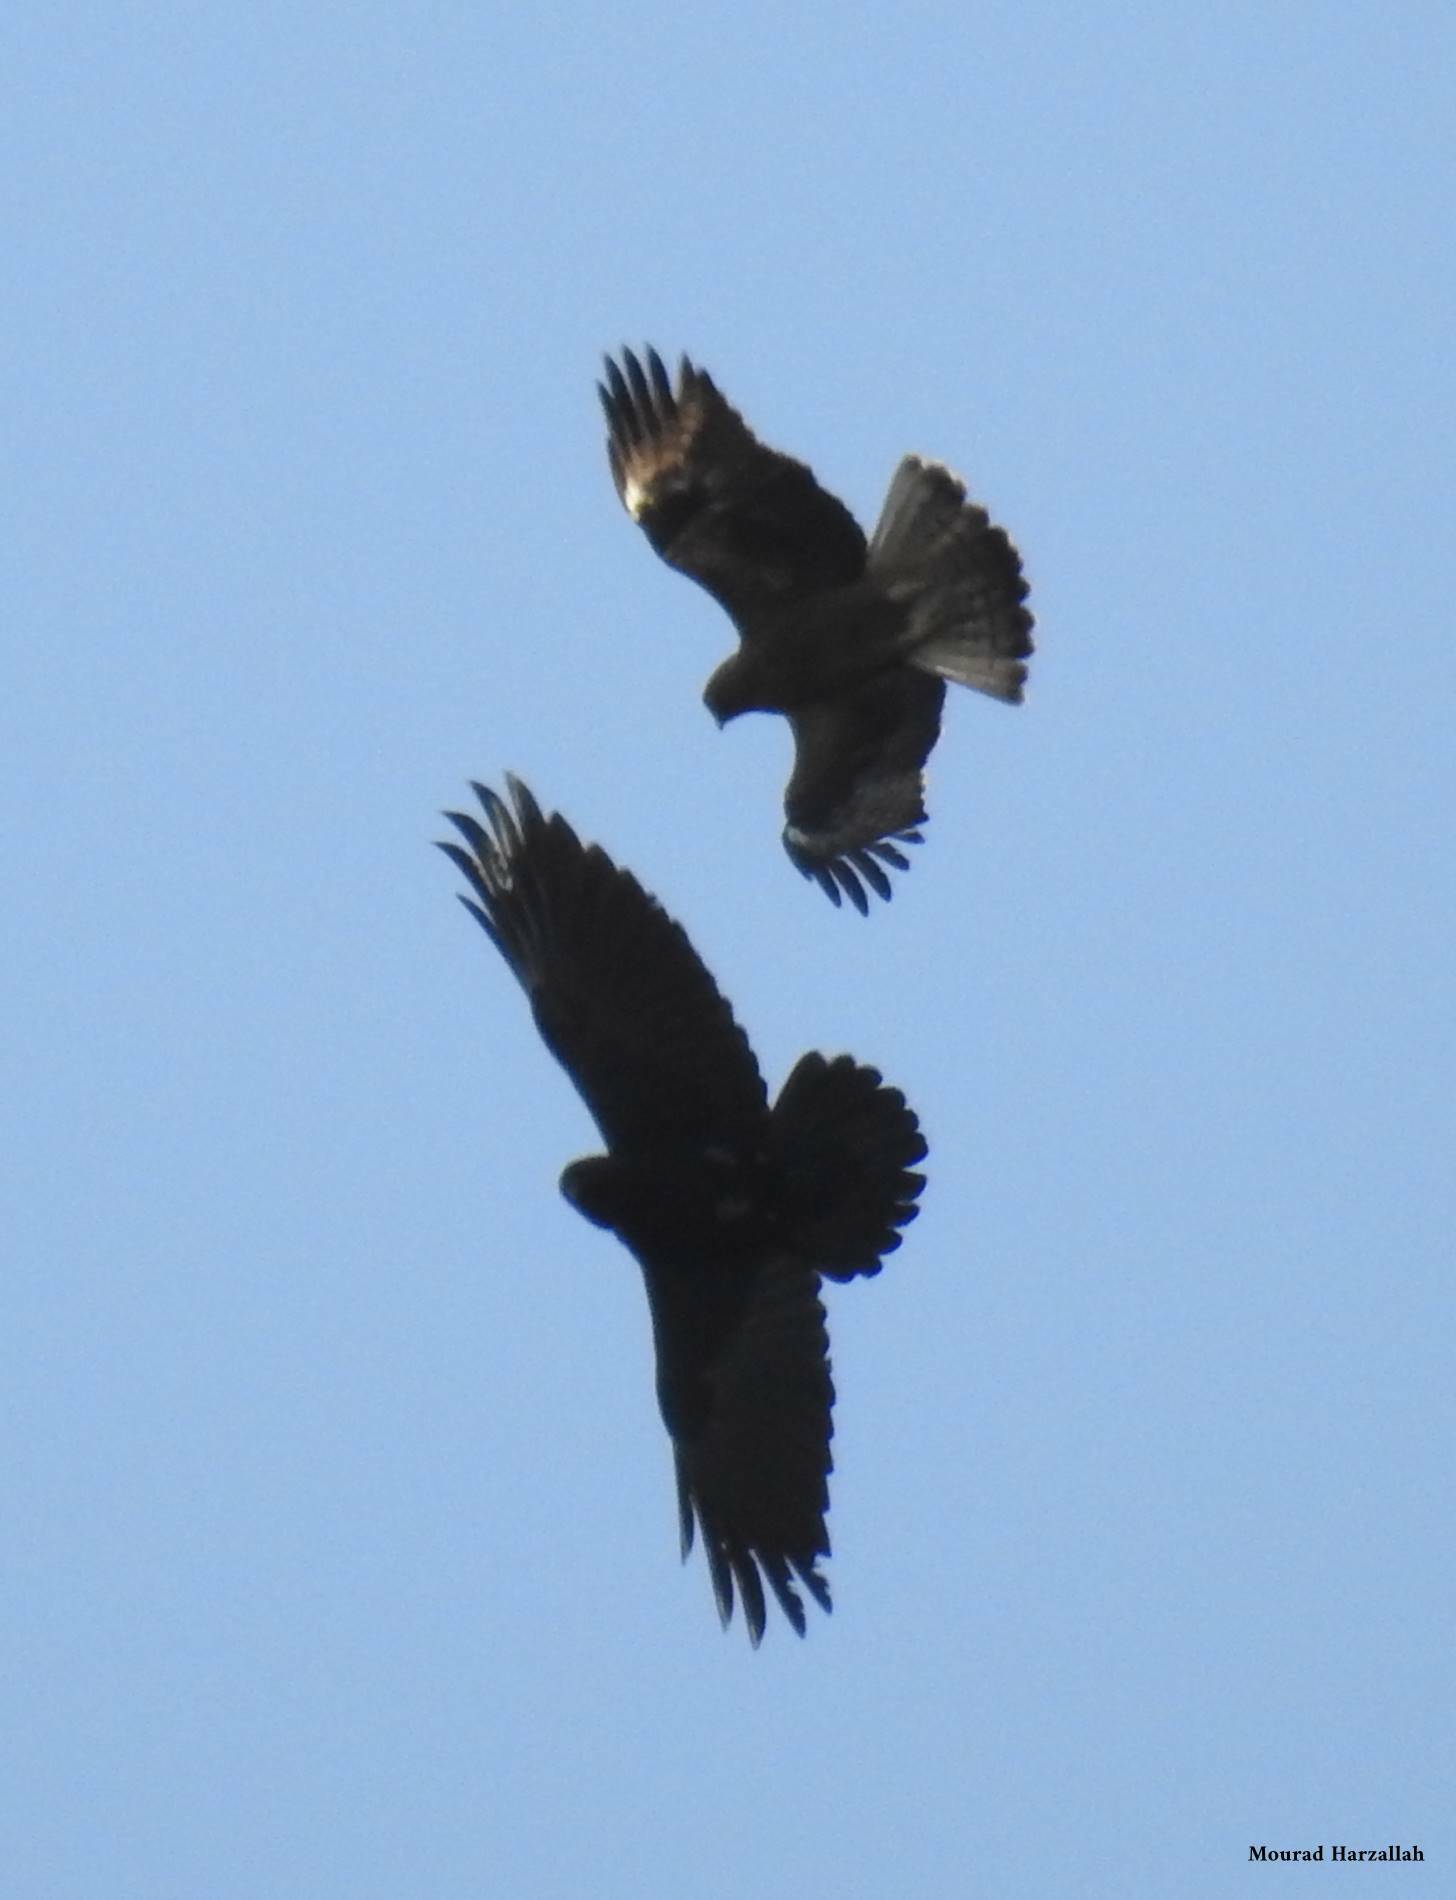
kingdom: Animalia
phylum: Chordata
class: Aves
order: Accipitriformes
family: Accipitridae
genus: Hieraaetus
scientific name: Hieraaetus pennatus
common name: Booted eagle
